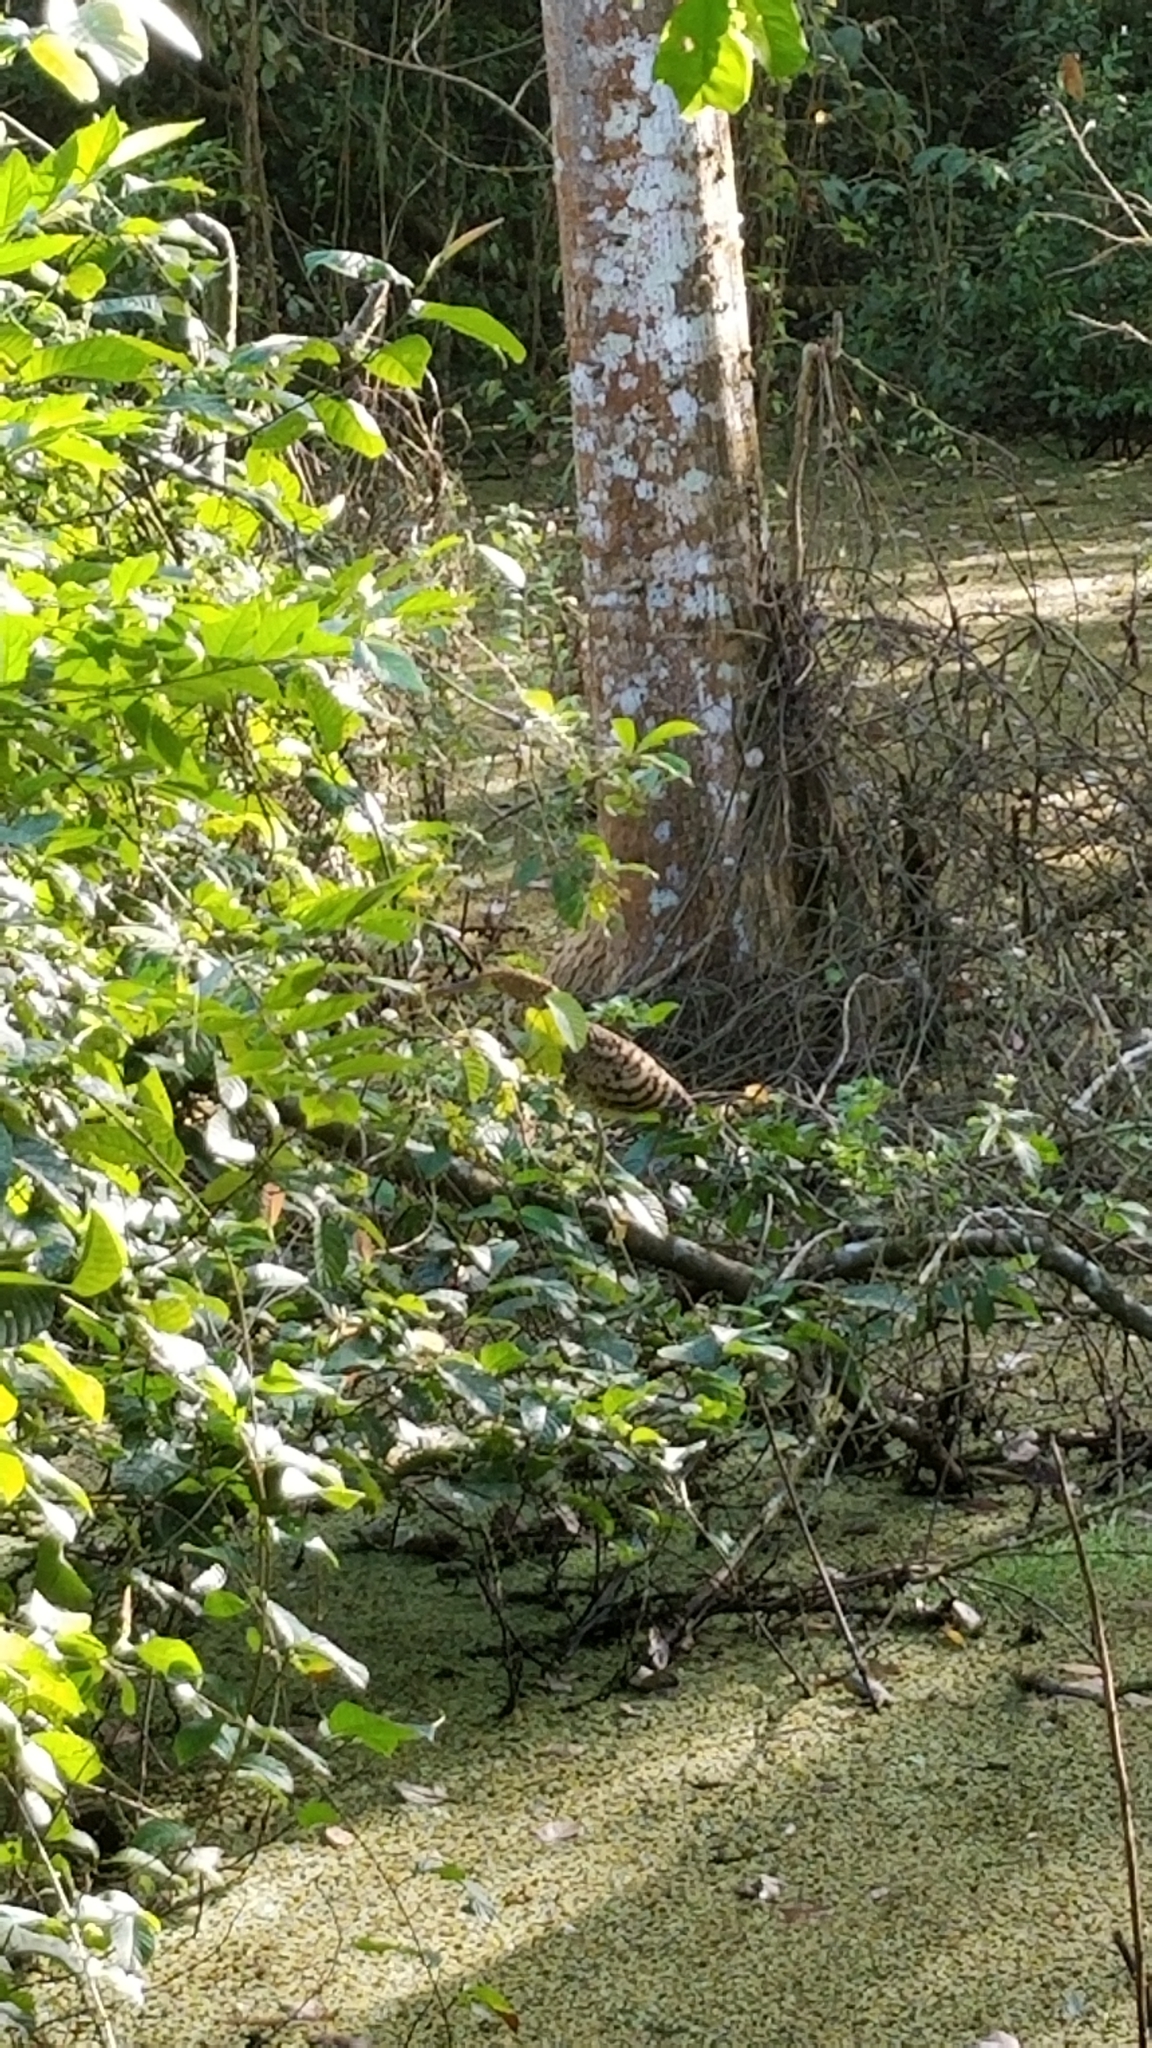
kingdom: Animalia
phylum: Chordata
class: Aves
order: Pelecaniformes
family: Ardeidae
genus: Tigrisoma
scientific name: Tigrisoma lineatum
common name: Rufescent tiger-heron
